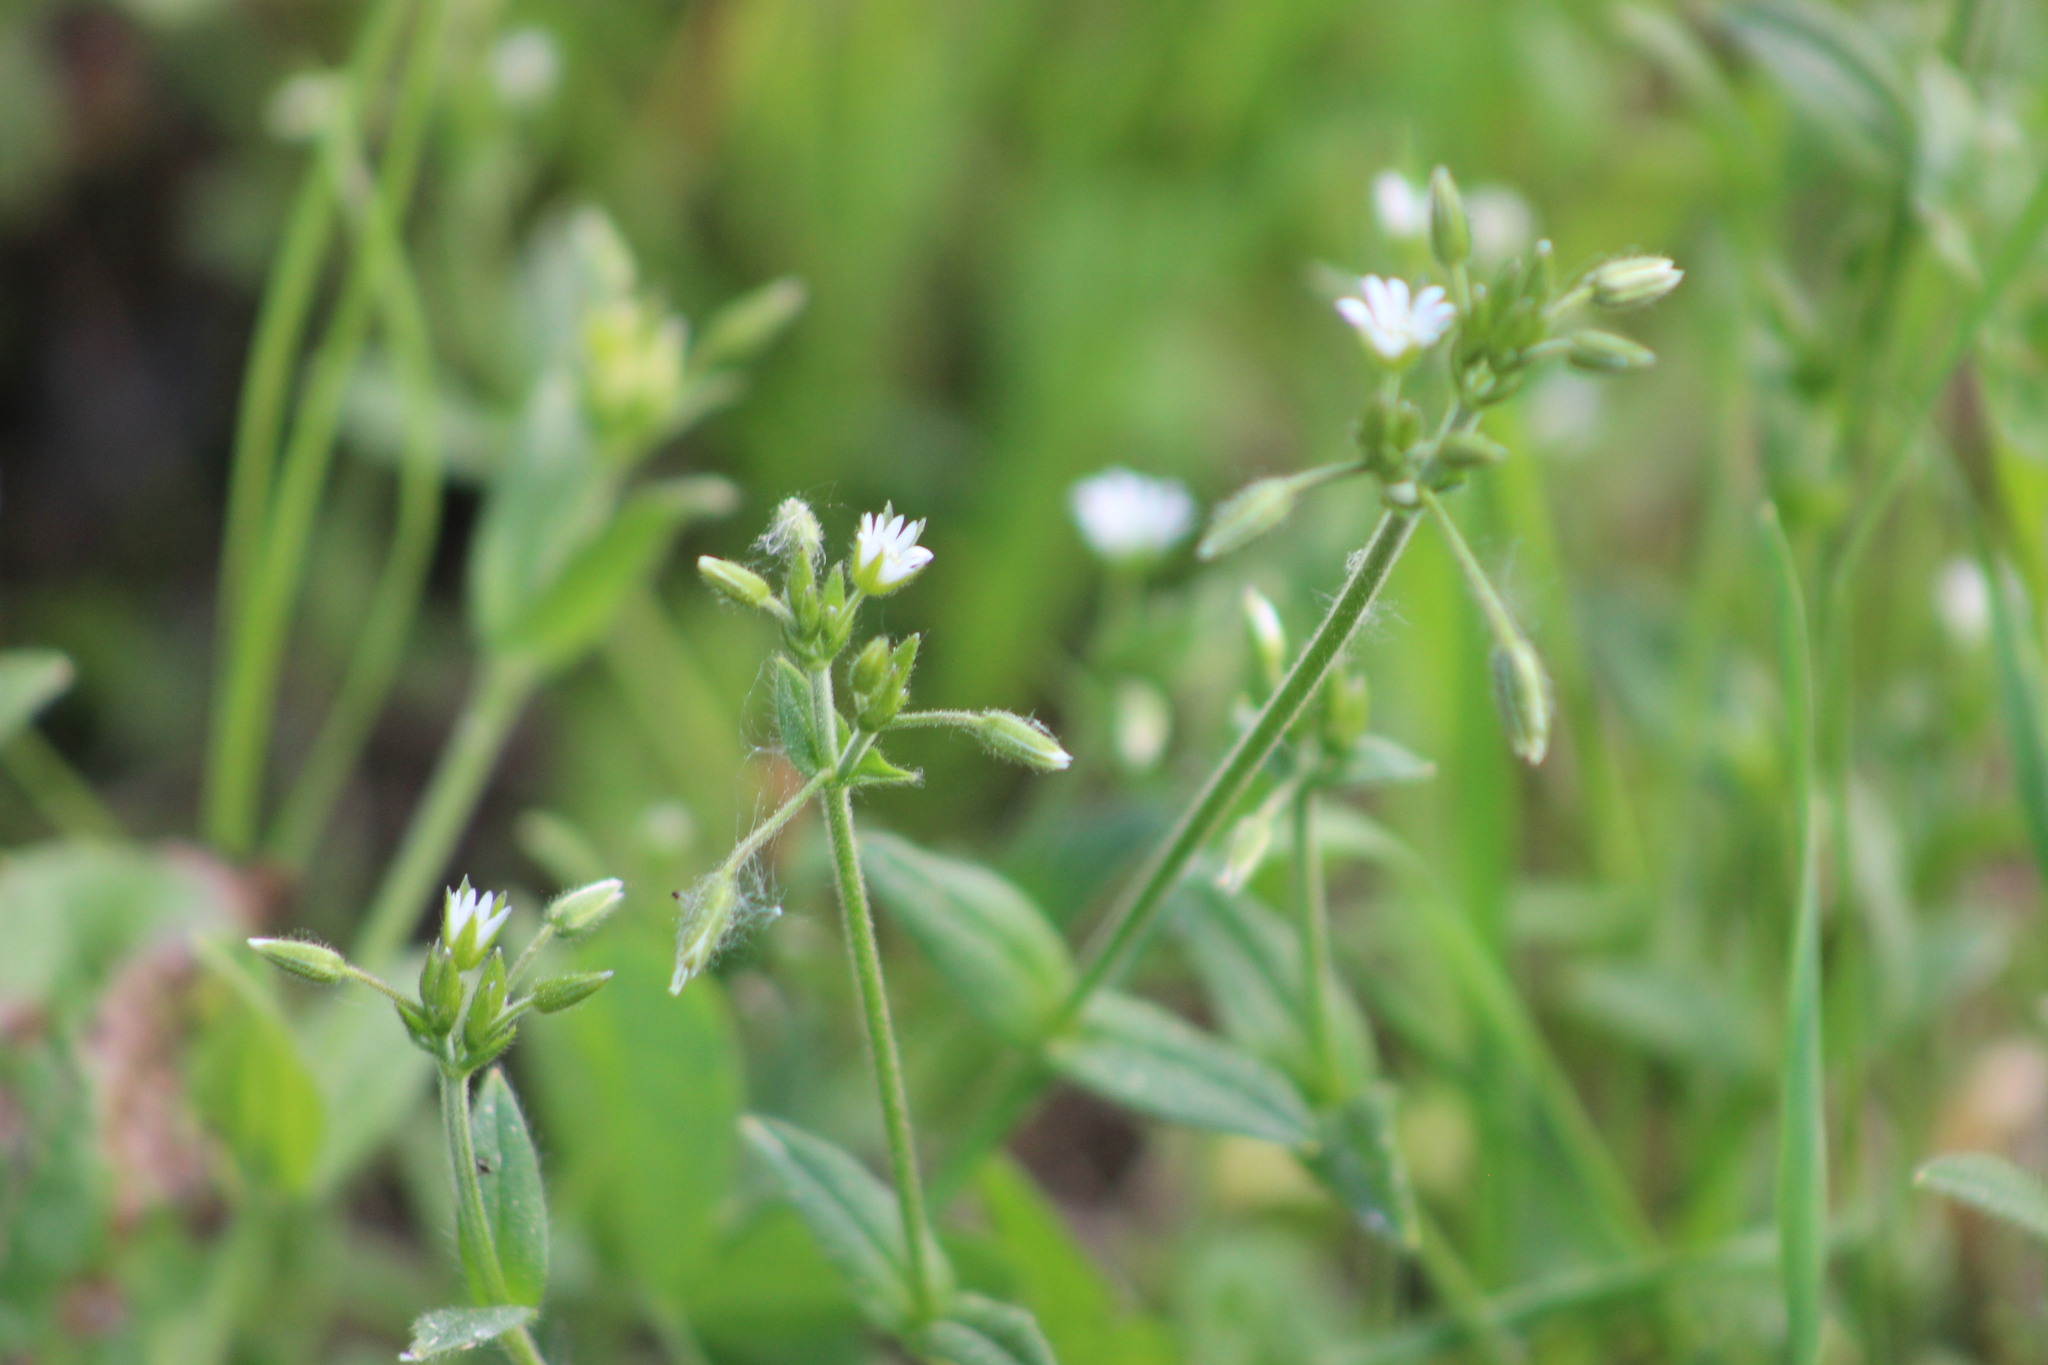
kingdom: Plantae
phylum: Tracheophyta
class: Magnoliopsida
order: Caryophyllales
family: Caryophyllaceae
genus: Cerastium
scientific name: Cerastium holosteoides
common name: Big chickweed
